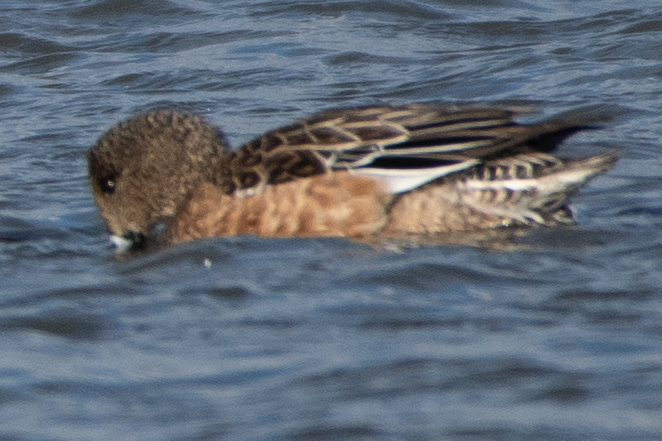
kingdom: Animalia
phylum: Chordata
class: Aves
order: Anseriformes
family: Anatidae
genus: Mareca
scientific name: Mareca americana
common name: American wigeon
